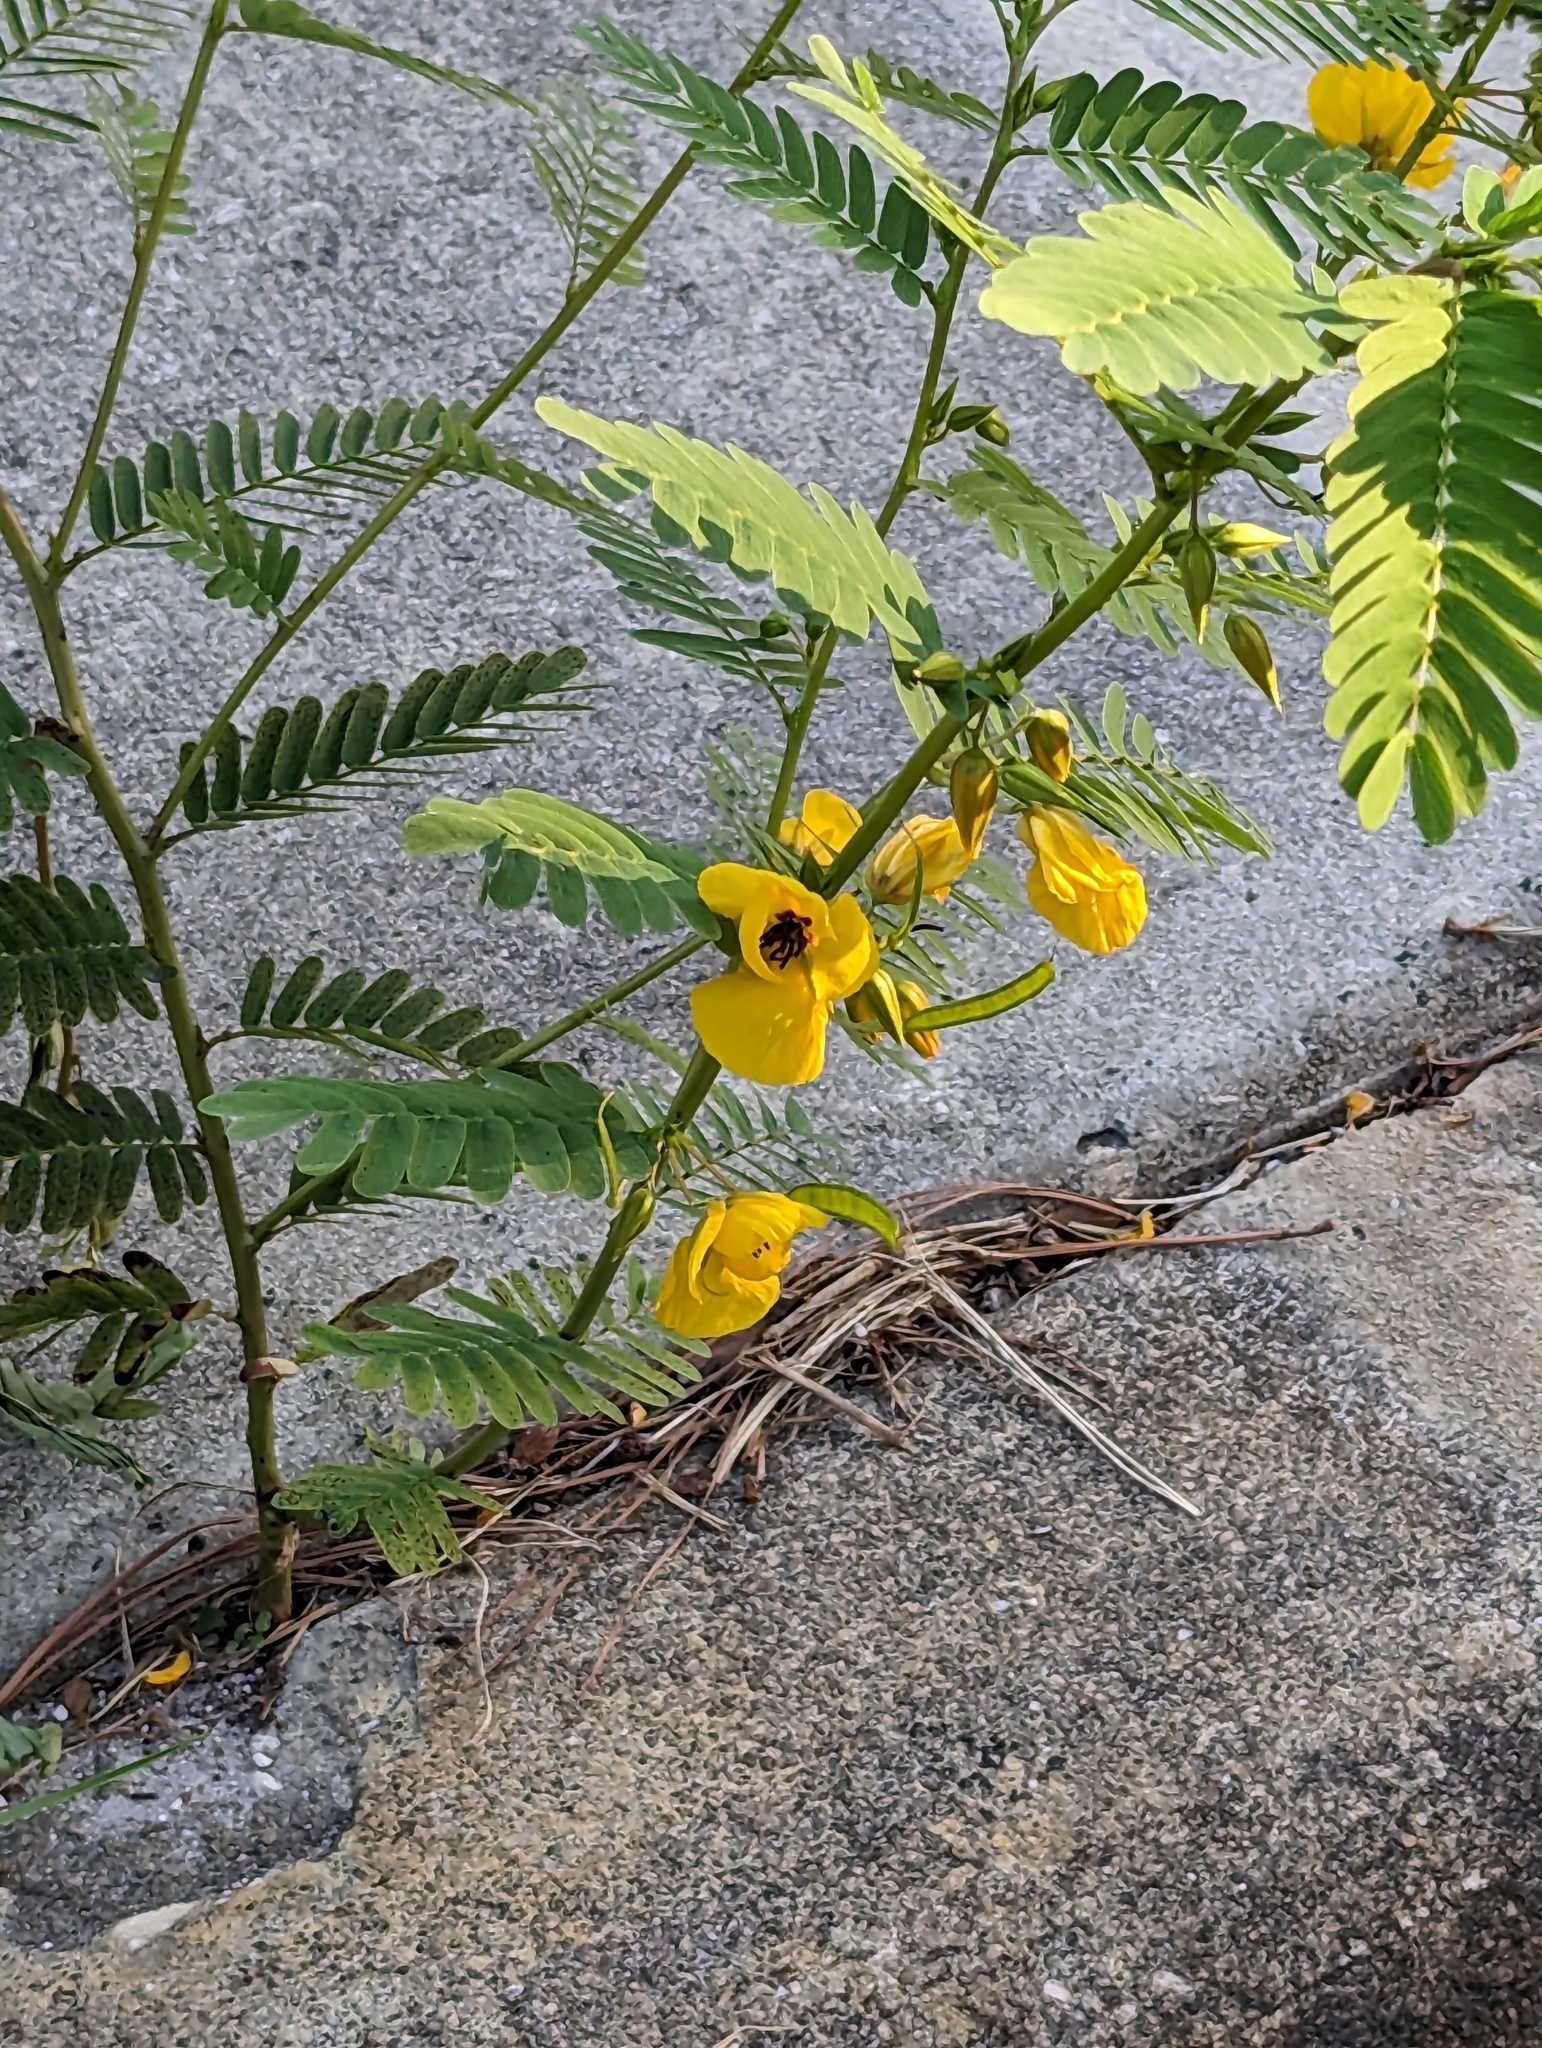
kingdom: Plantae
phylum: Tracheophyta
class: Magnoliopsida
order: Fabales
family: Fabaceae
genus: Chamaecrista
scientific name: Chamaecrista fasciculata
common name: Golden cassia
